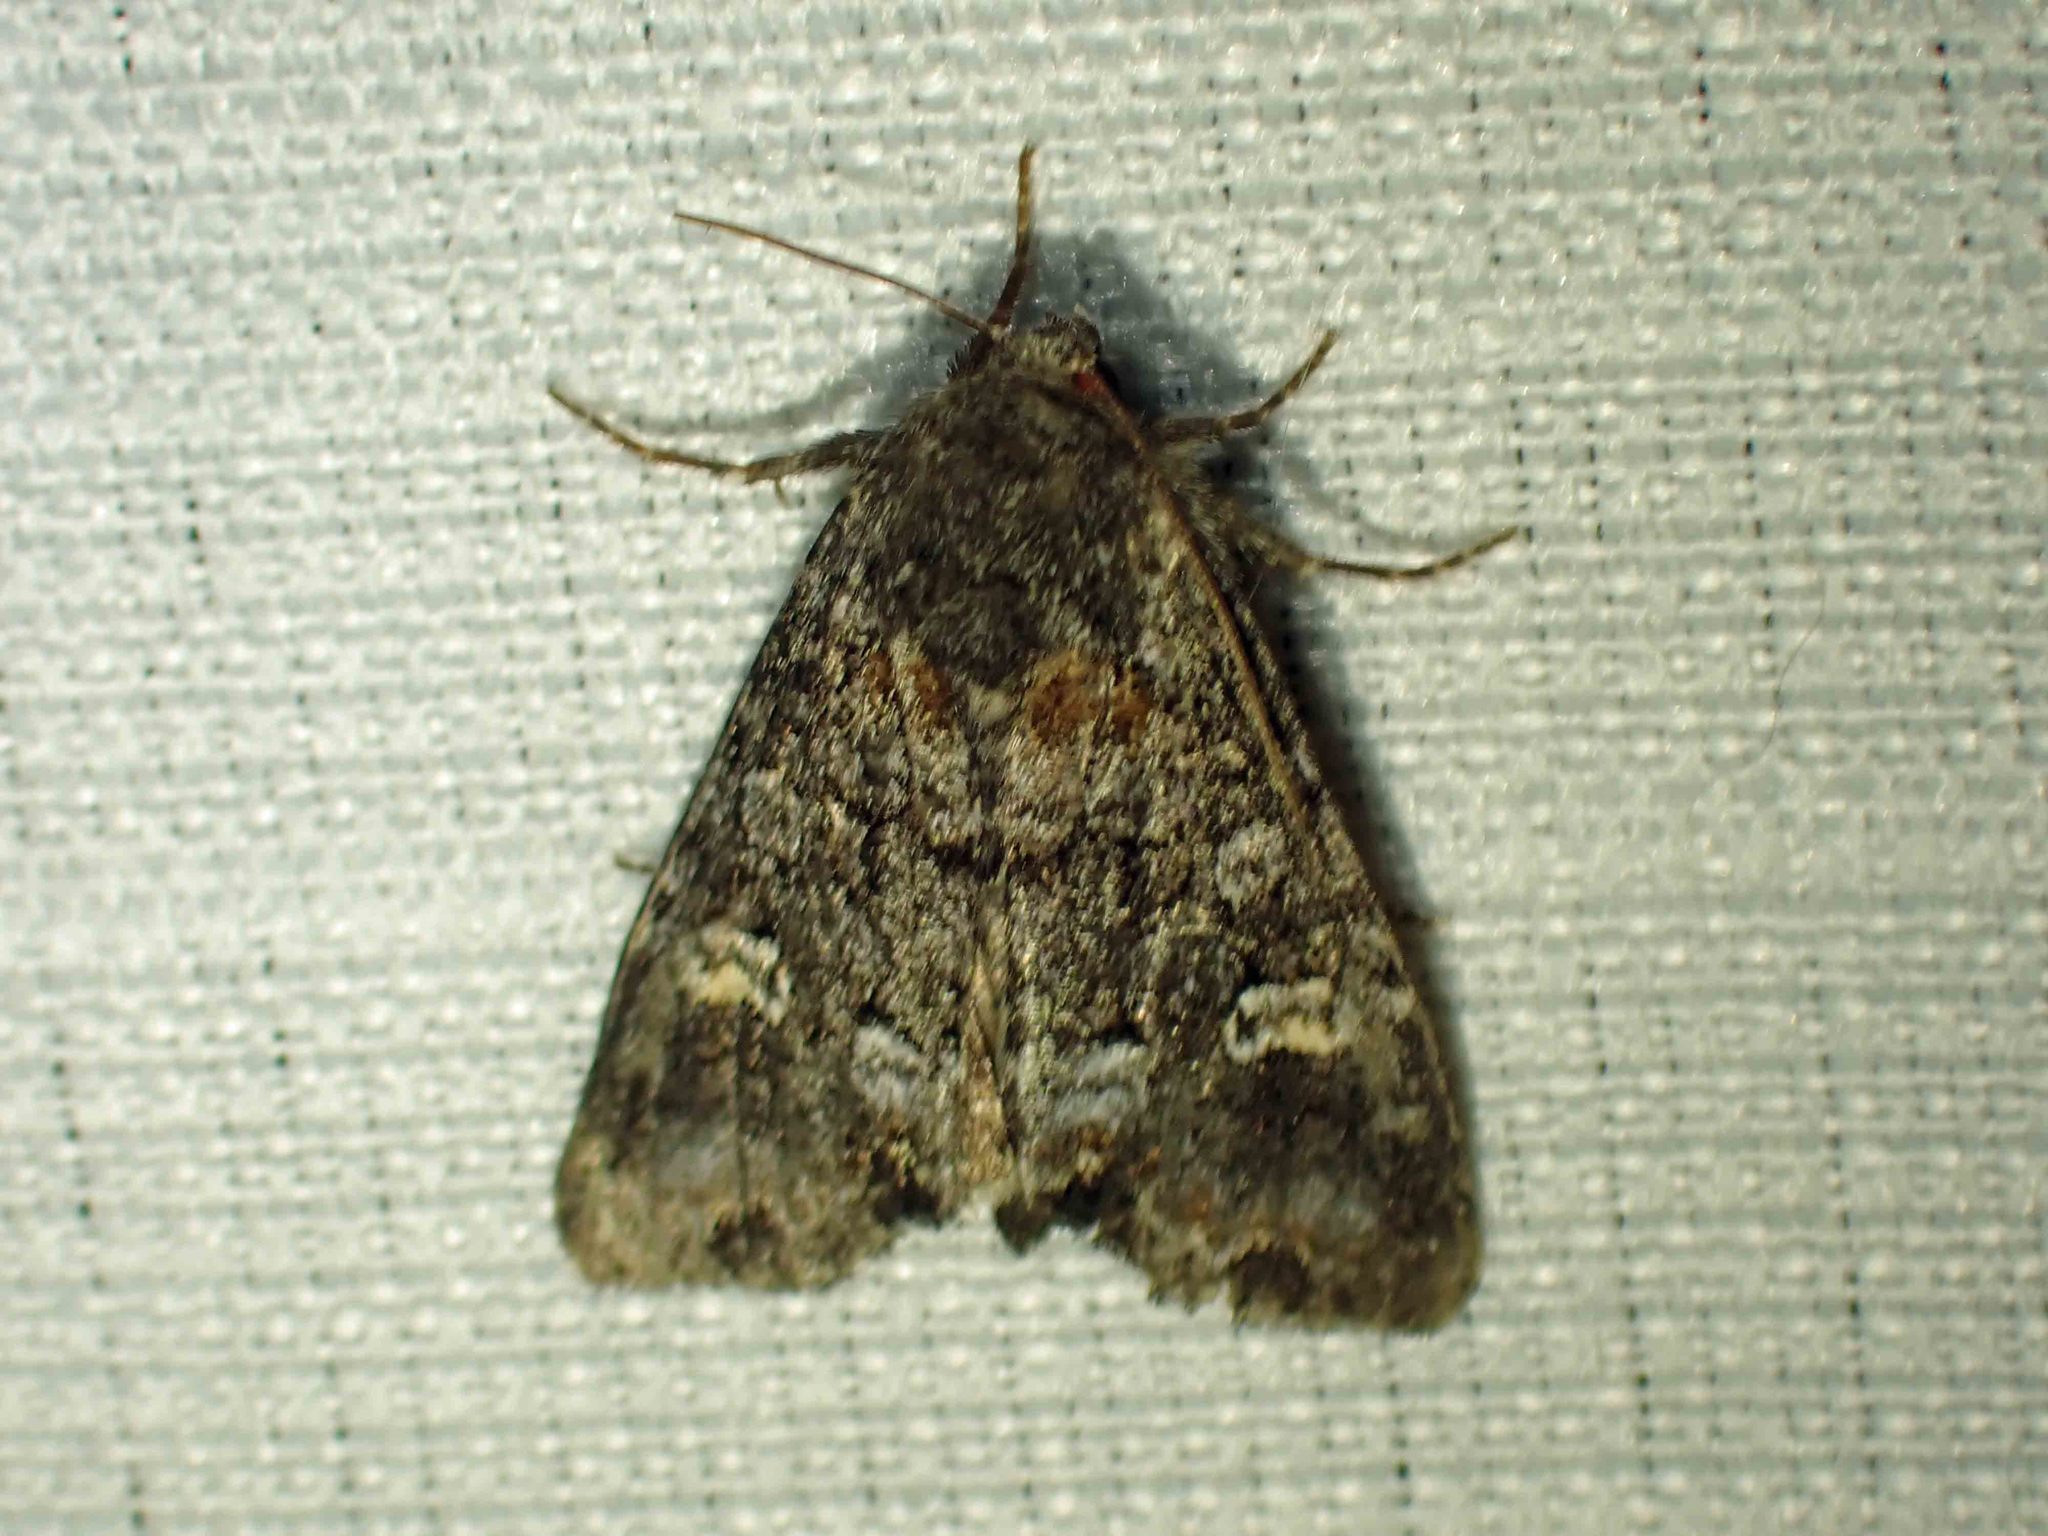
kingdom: Animalia
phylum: Arthropoda
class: Insecta
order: Lepidoptera
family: Noctuidae
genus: Spiramater
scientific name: Spiramater lutra
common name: Otter spiramater moth
